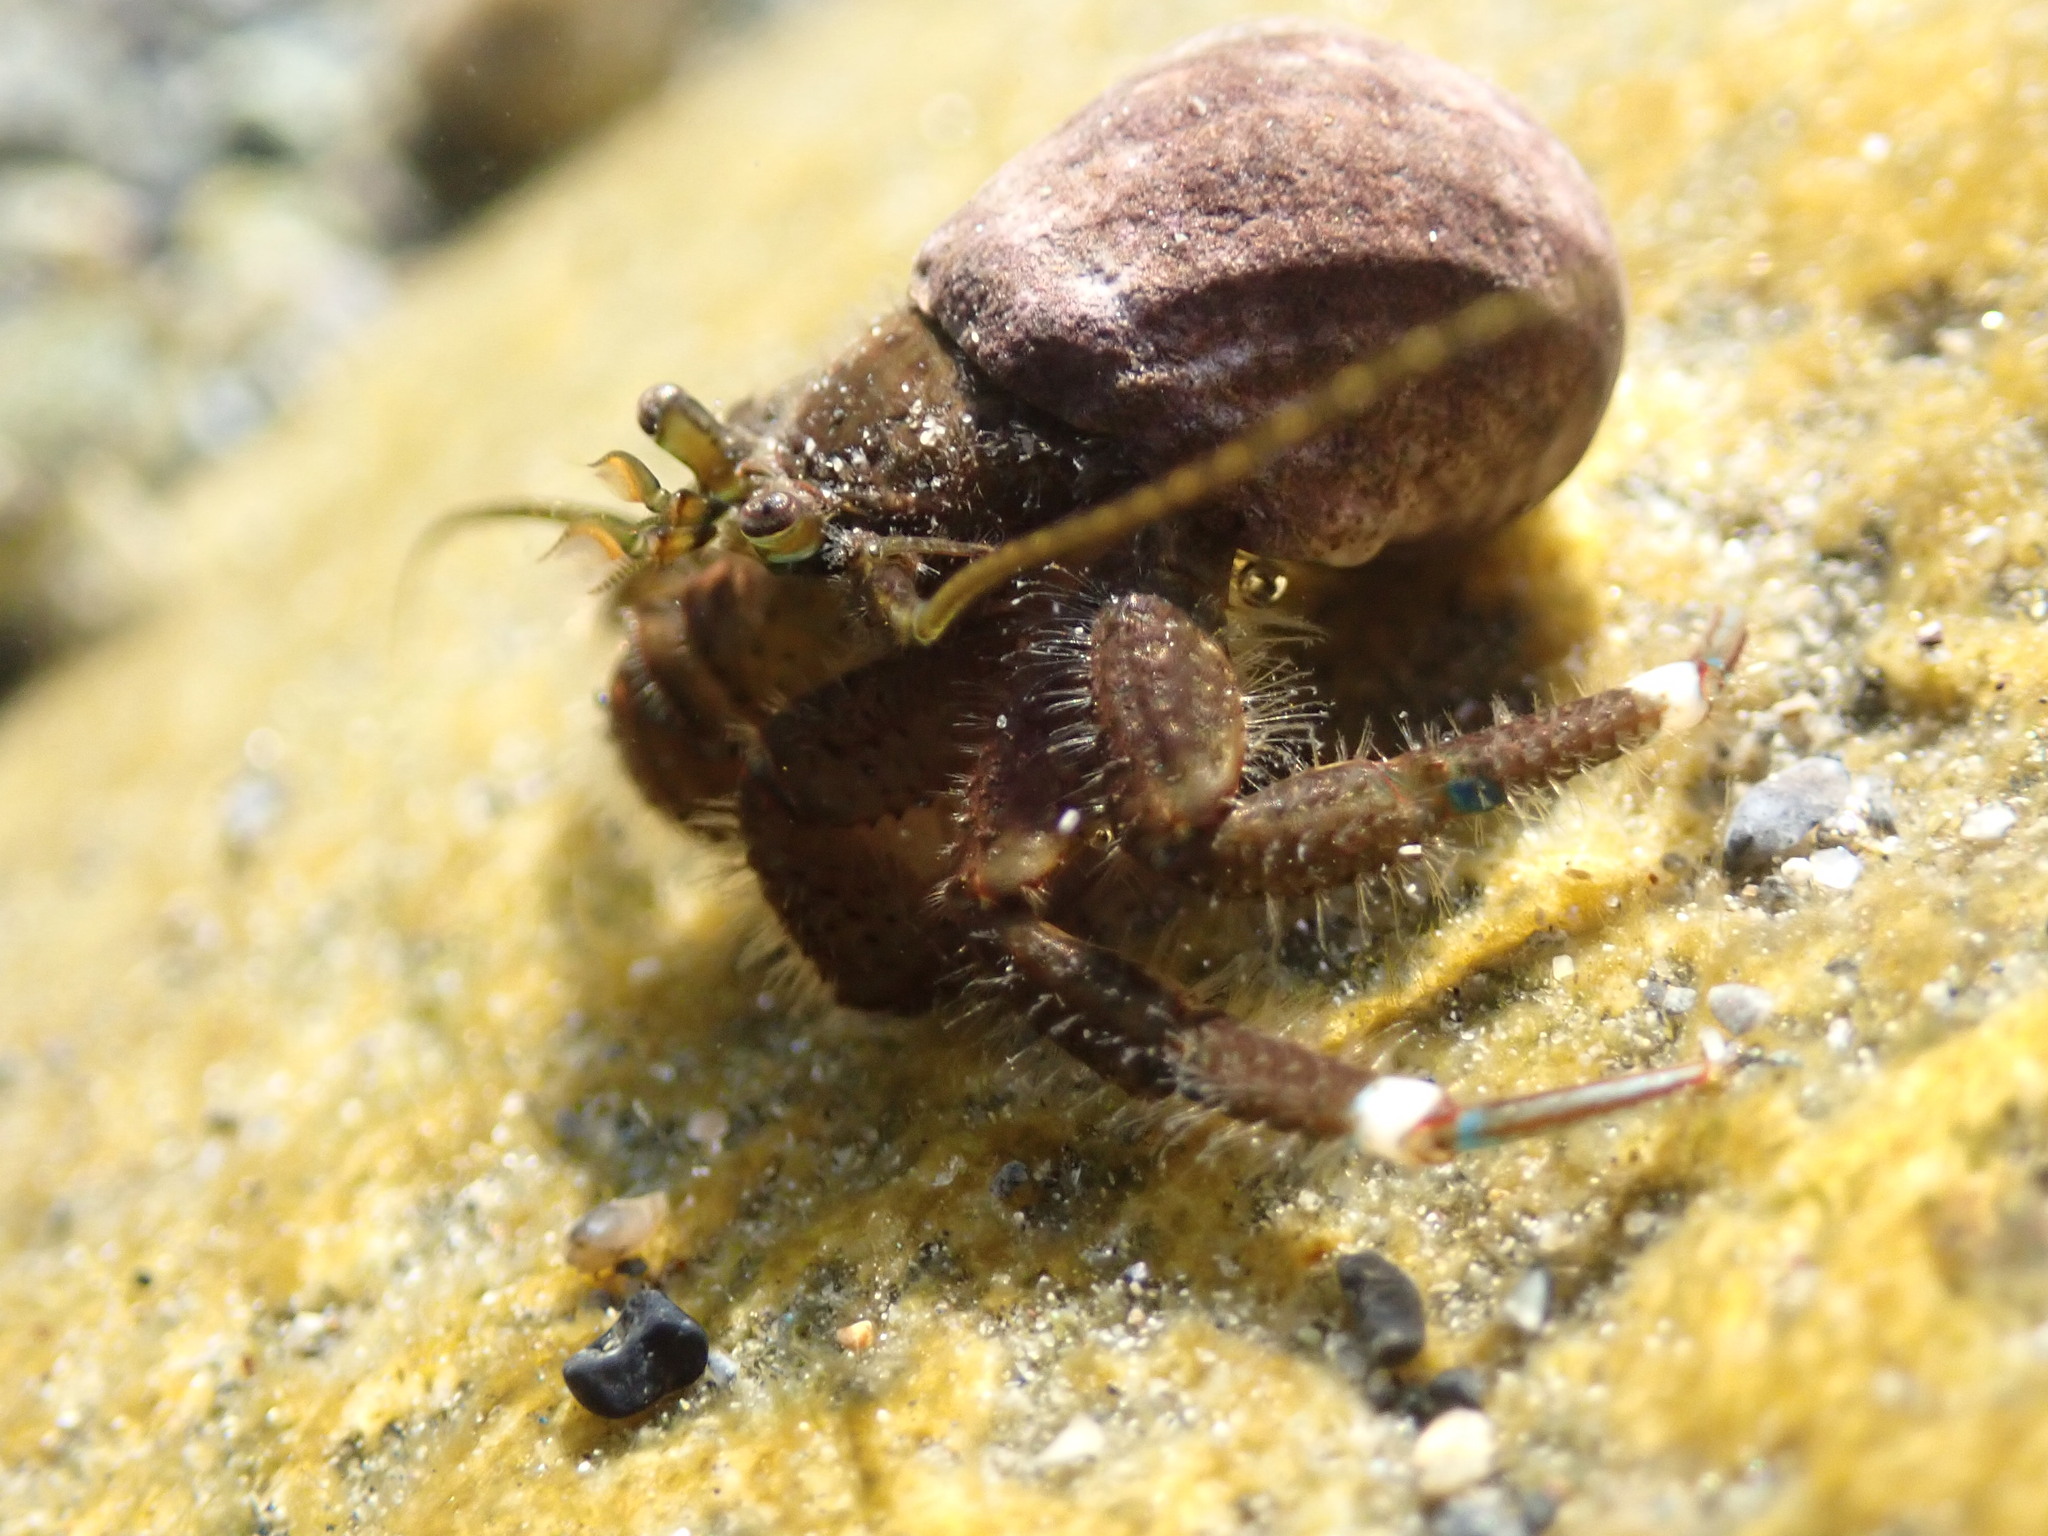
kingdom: Animalia
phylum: Arthropoda
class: Malacostraca
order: Decapoda
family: Paguridae
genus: Pagurus
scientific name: Pagurus hirsutiusculus
